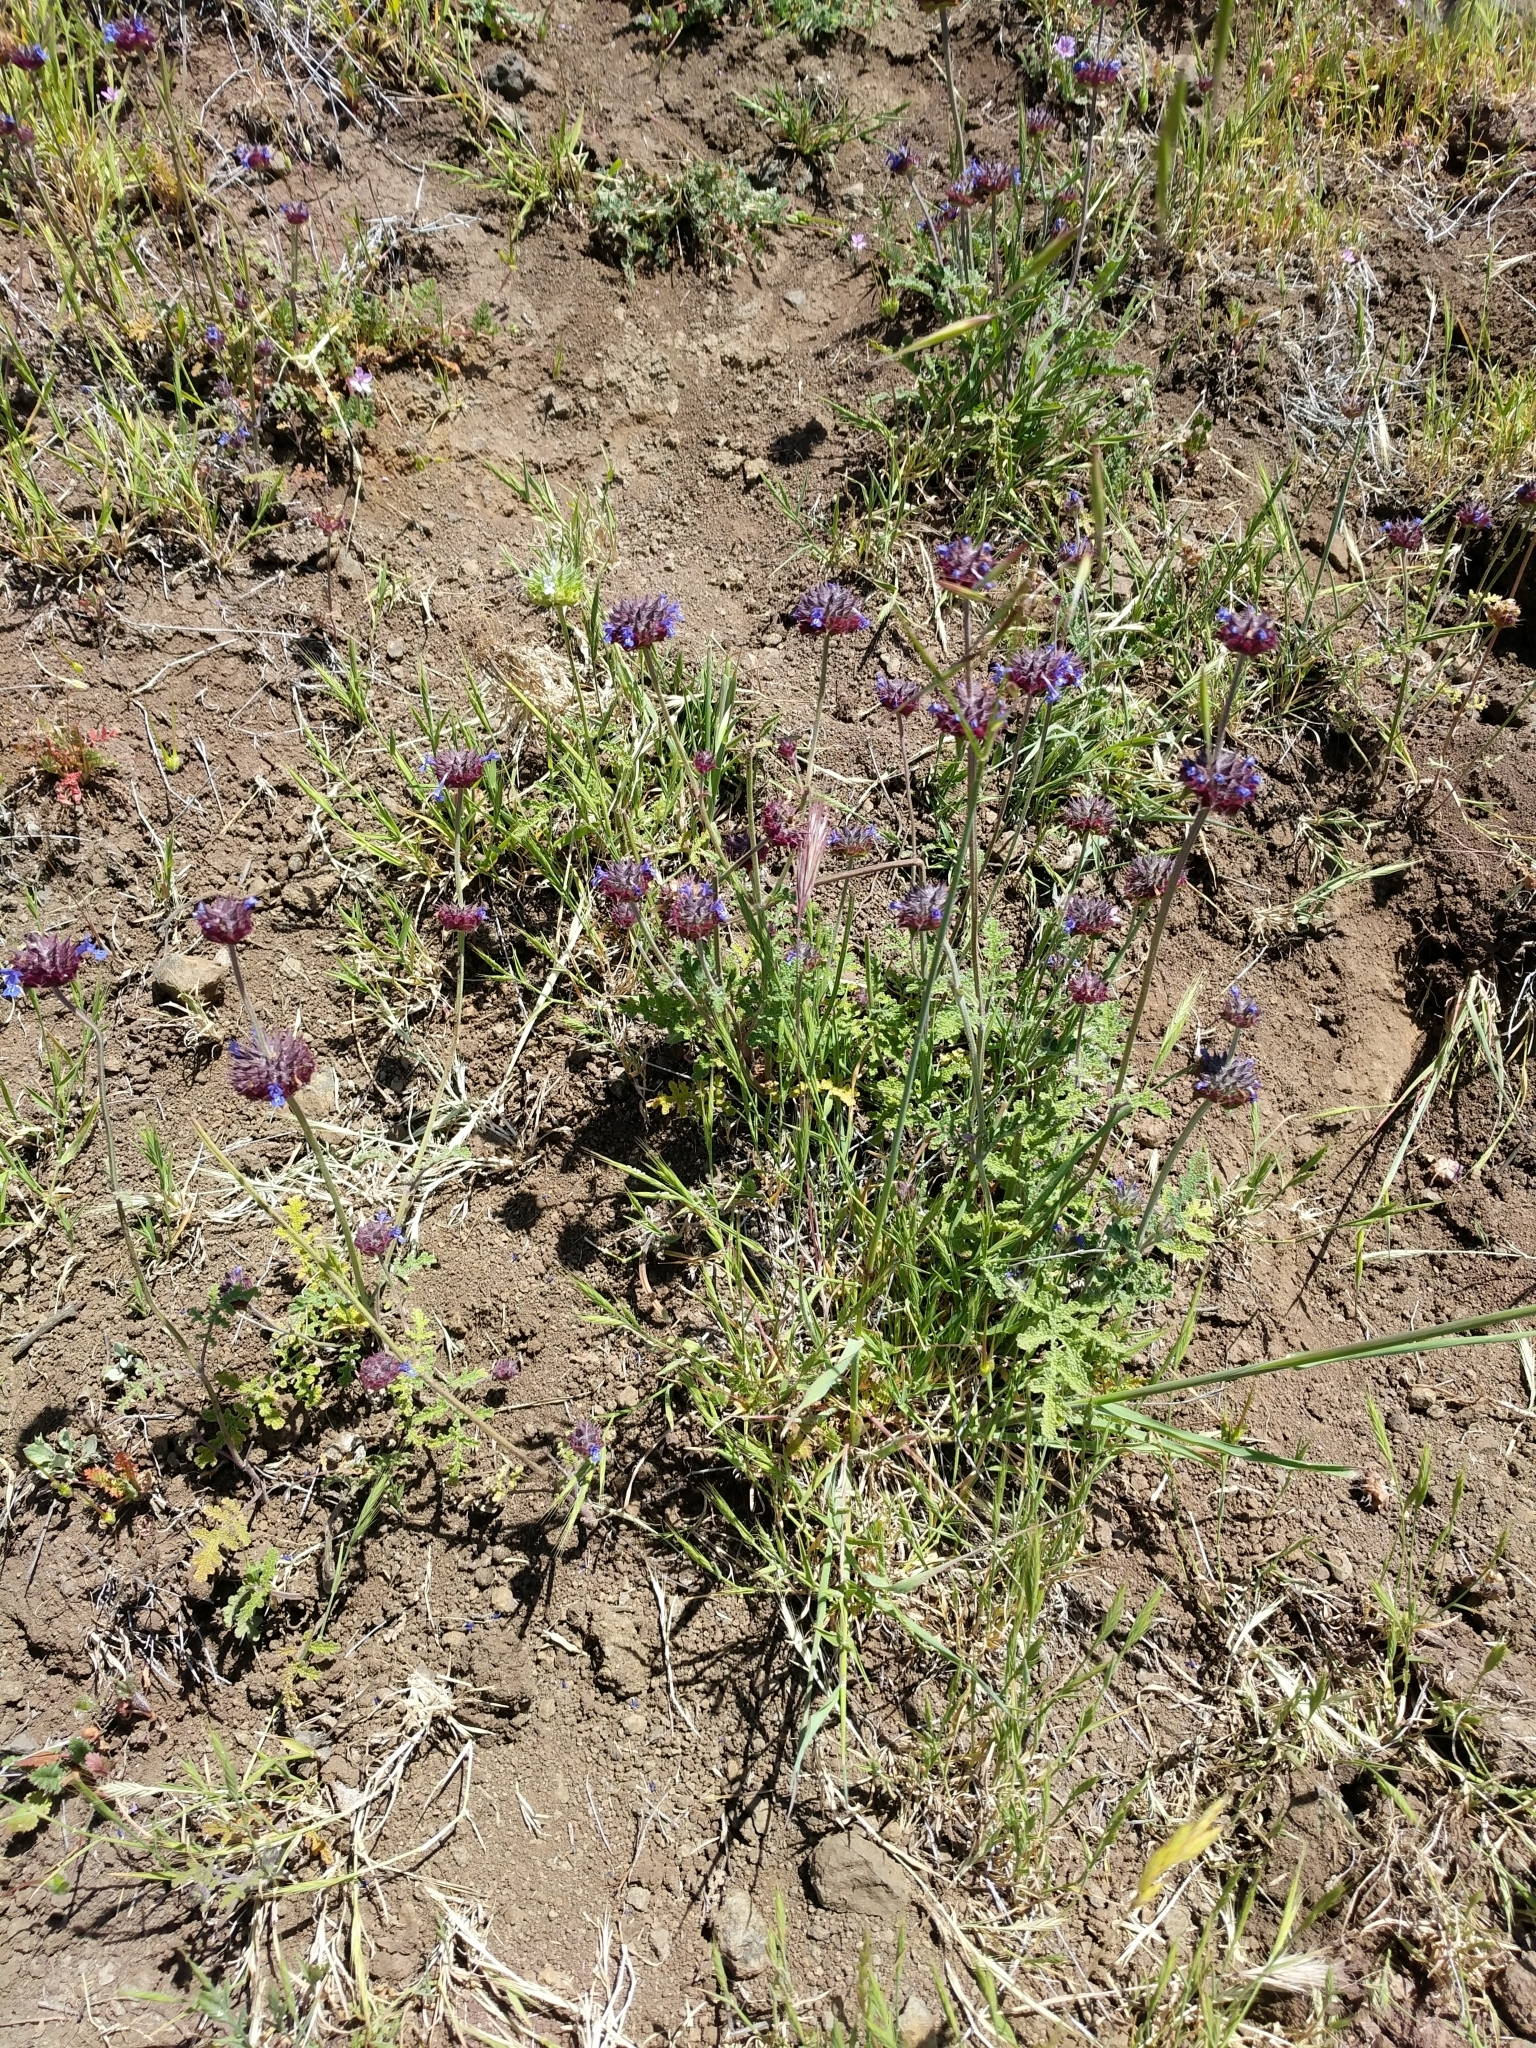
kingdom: Plantae
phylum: Tracheophyta
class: Magnoliopsida
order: Lamiales
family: Lamiaceae
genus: Salvia
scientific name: Salvia columbariae
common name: Chia
